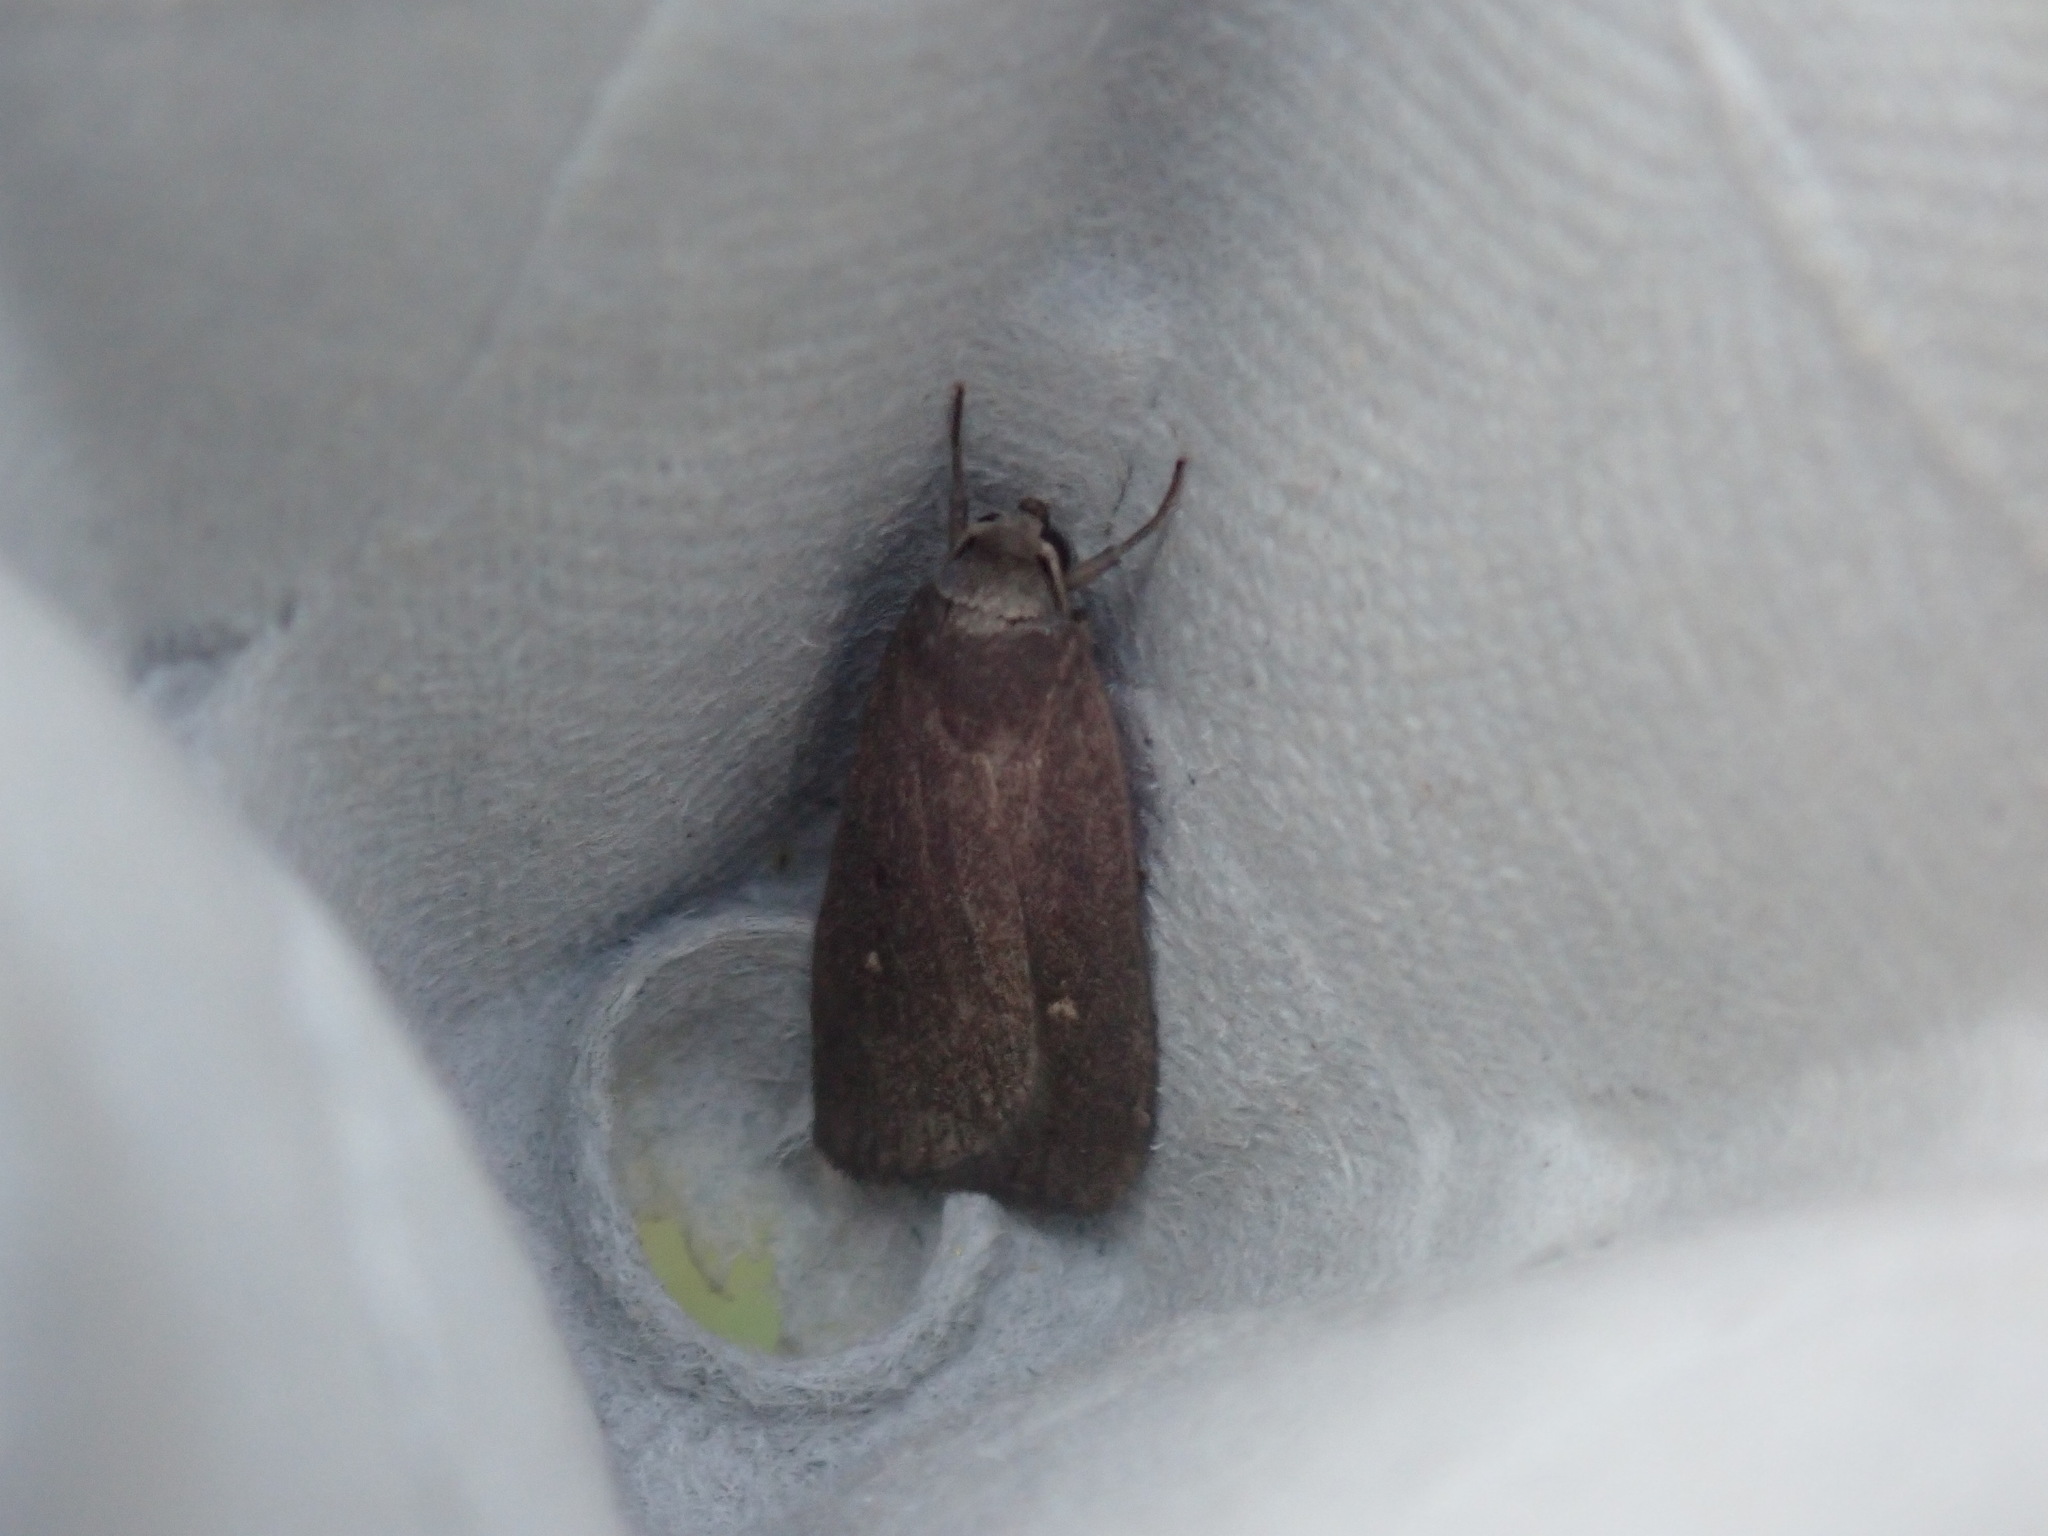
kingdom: Animalia
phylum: Arthropoda
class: Insecta
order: Lepidoptera
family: Noctuidae
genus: Proxenus
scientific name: Proxenus miranda
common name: Miranda moth
